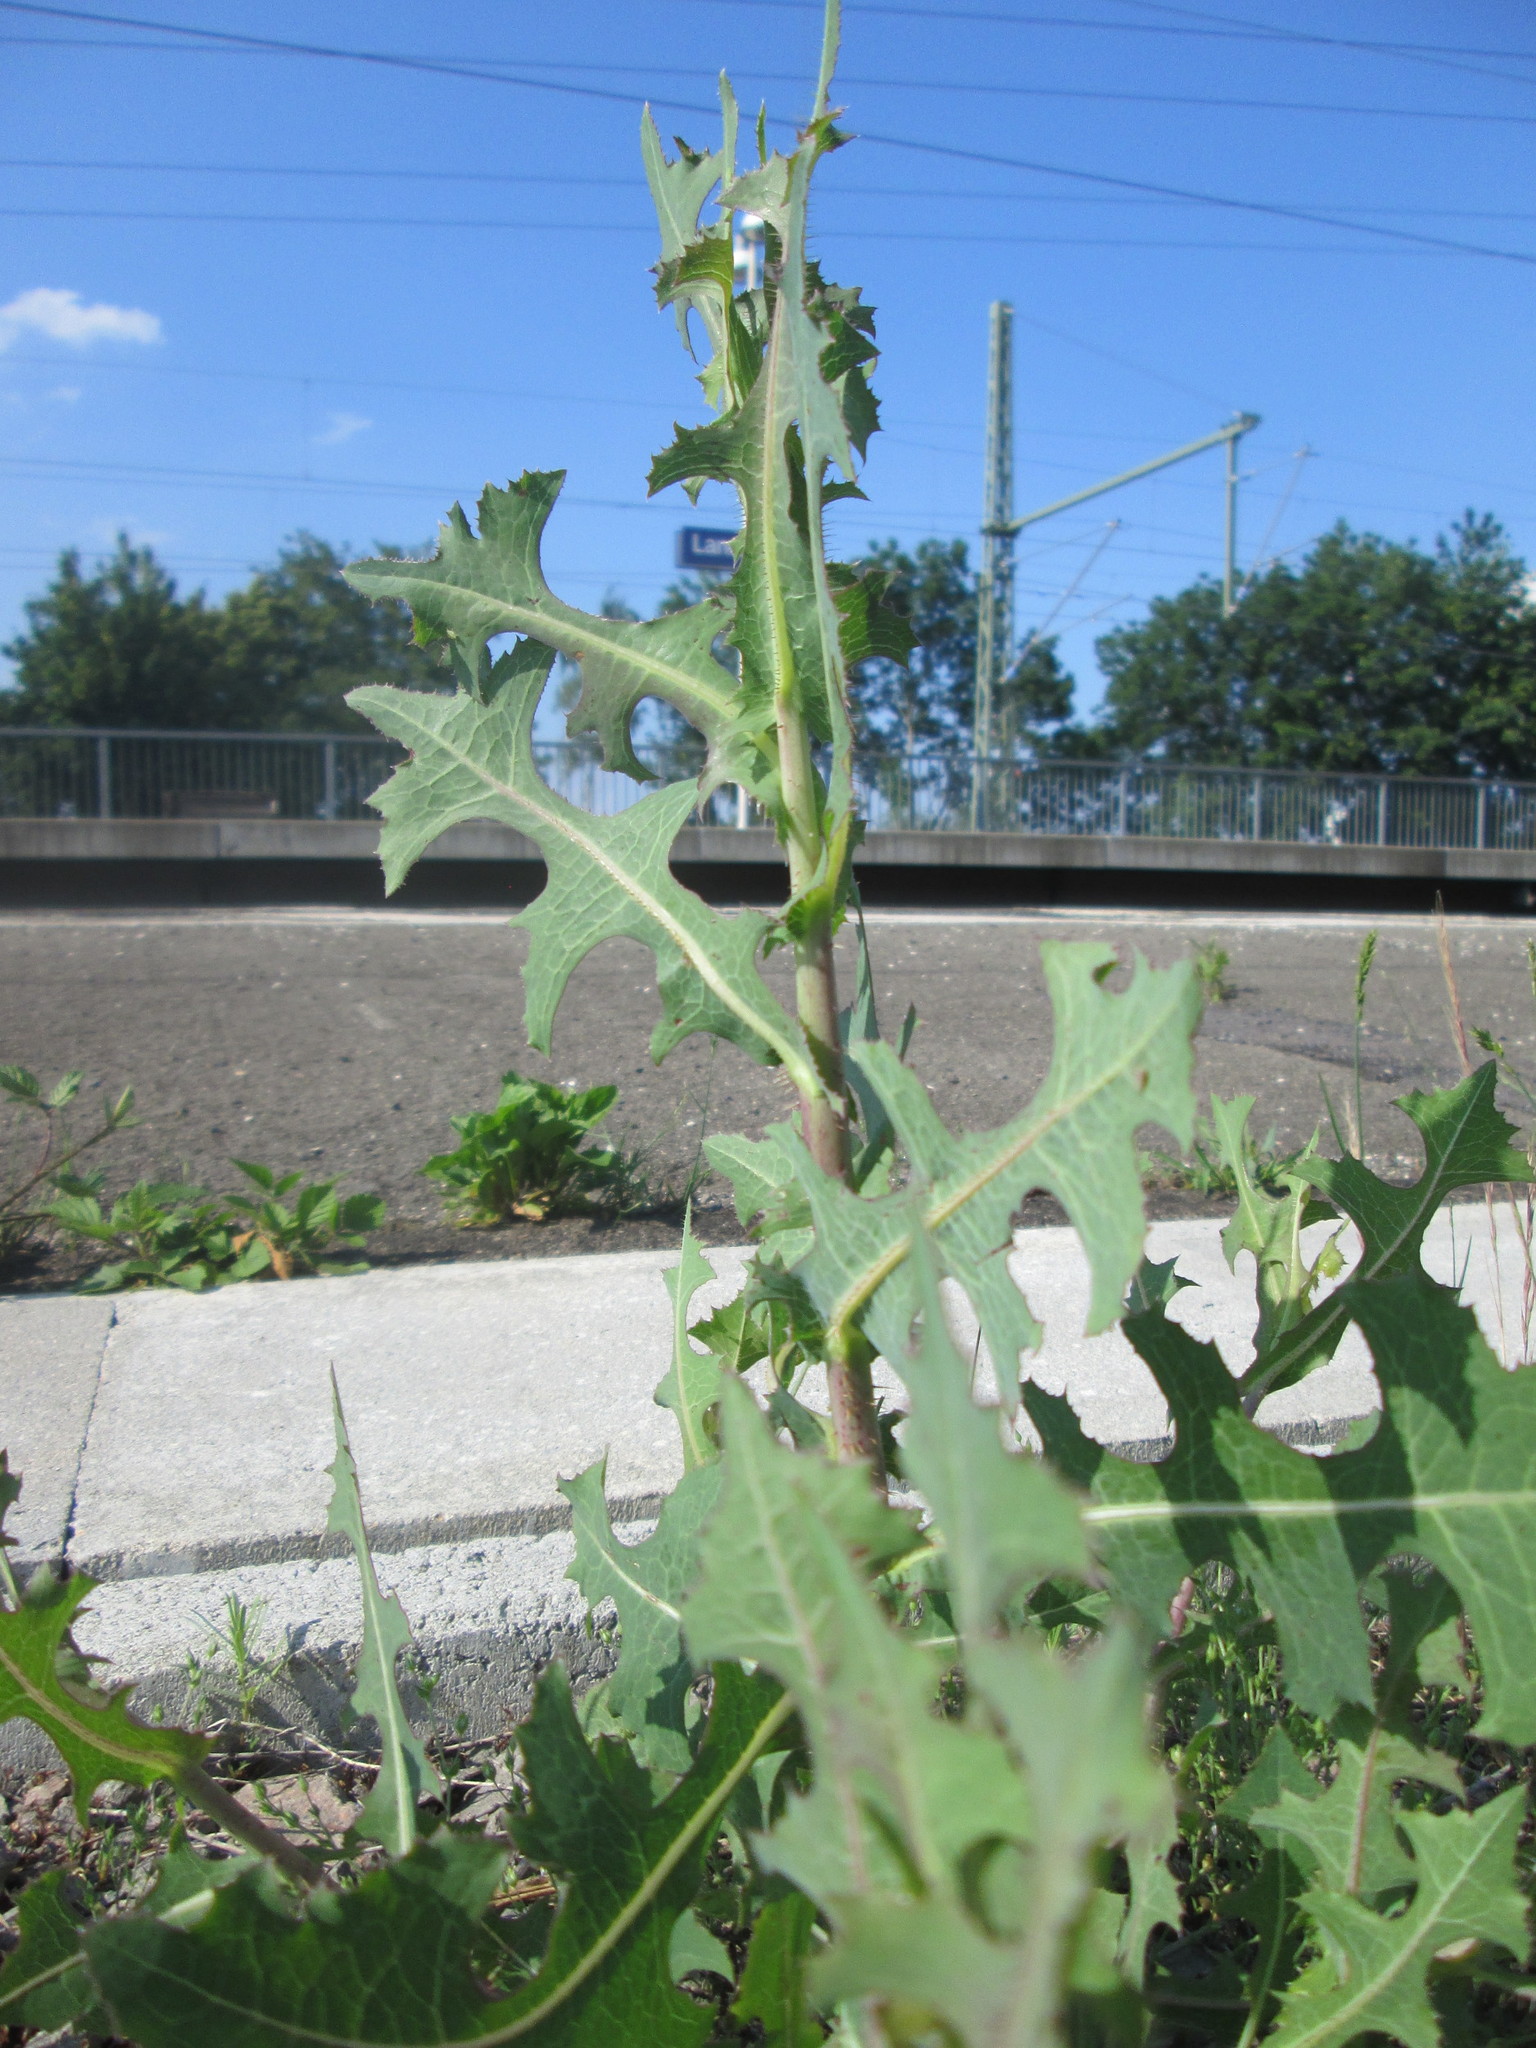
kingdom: Plantae
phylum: Tracheophyta
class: Magnoliopsida
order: Asterales
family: Asteraceae
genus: Lactuca
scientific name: Lactuca serriola
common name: Prickly lettuce
